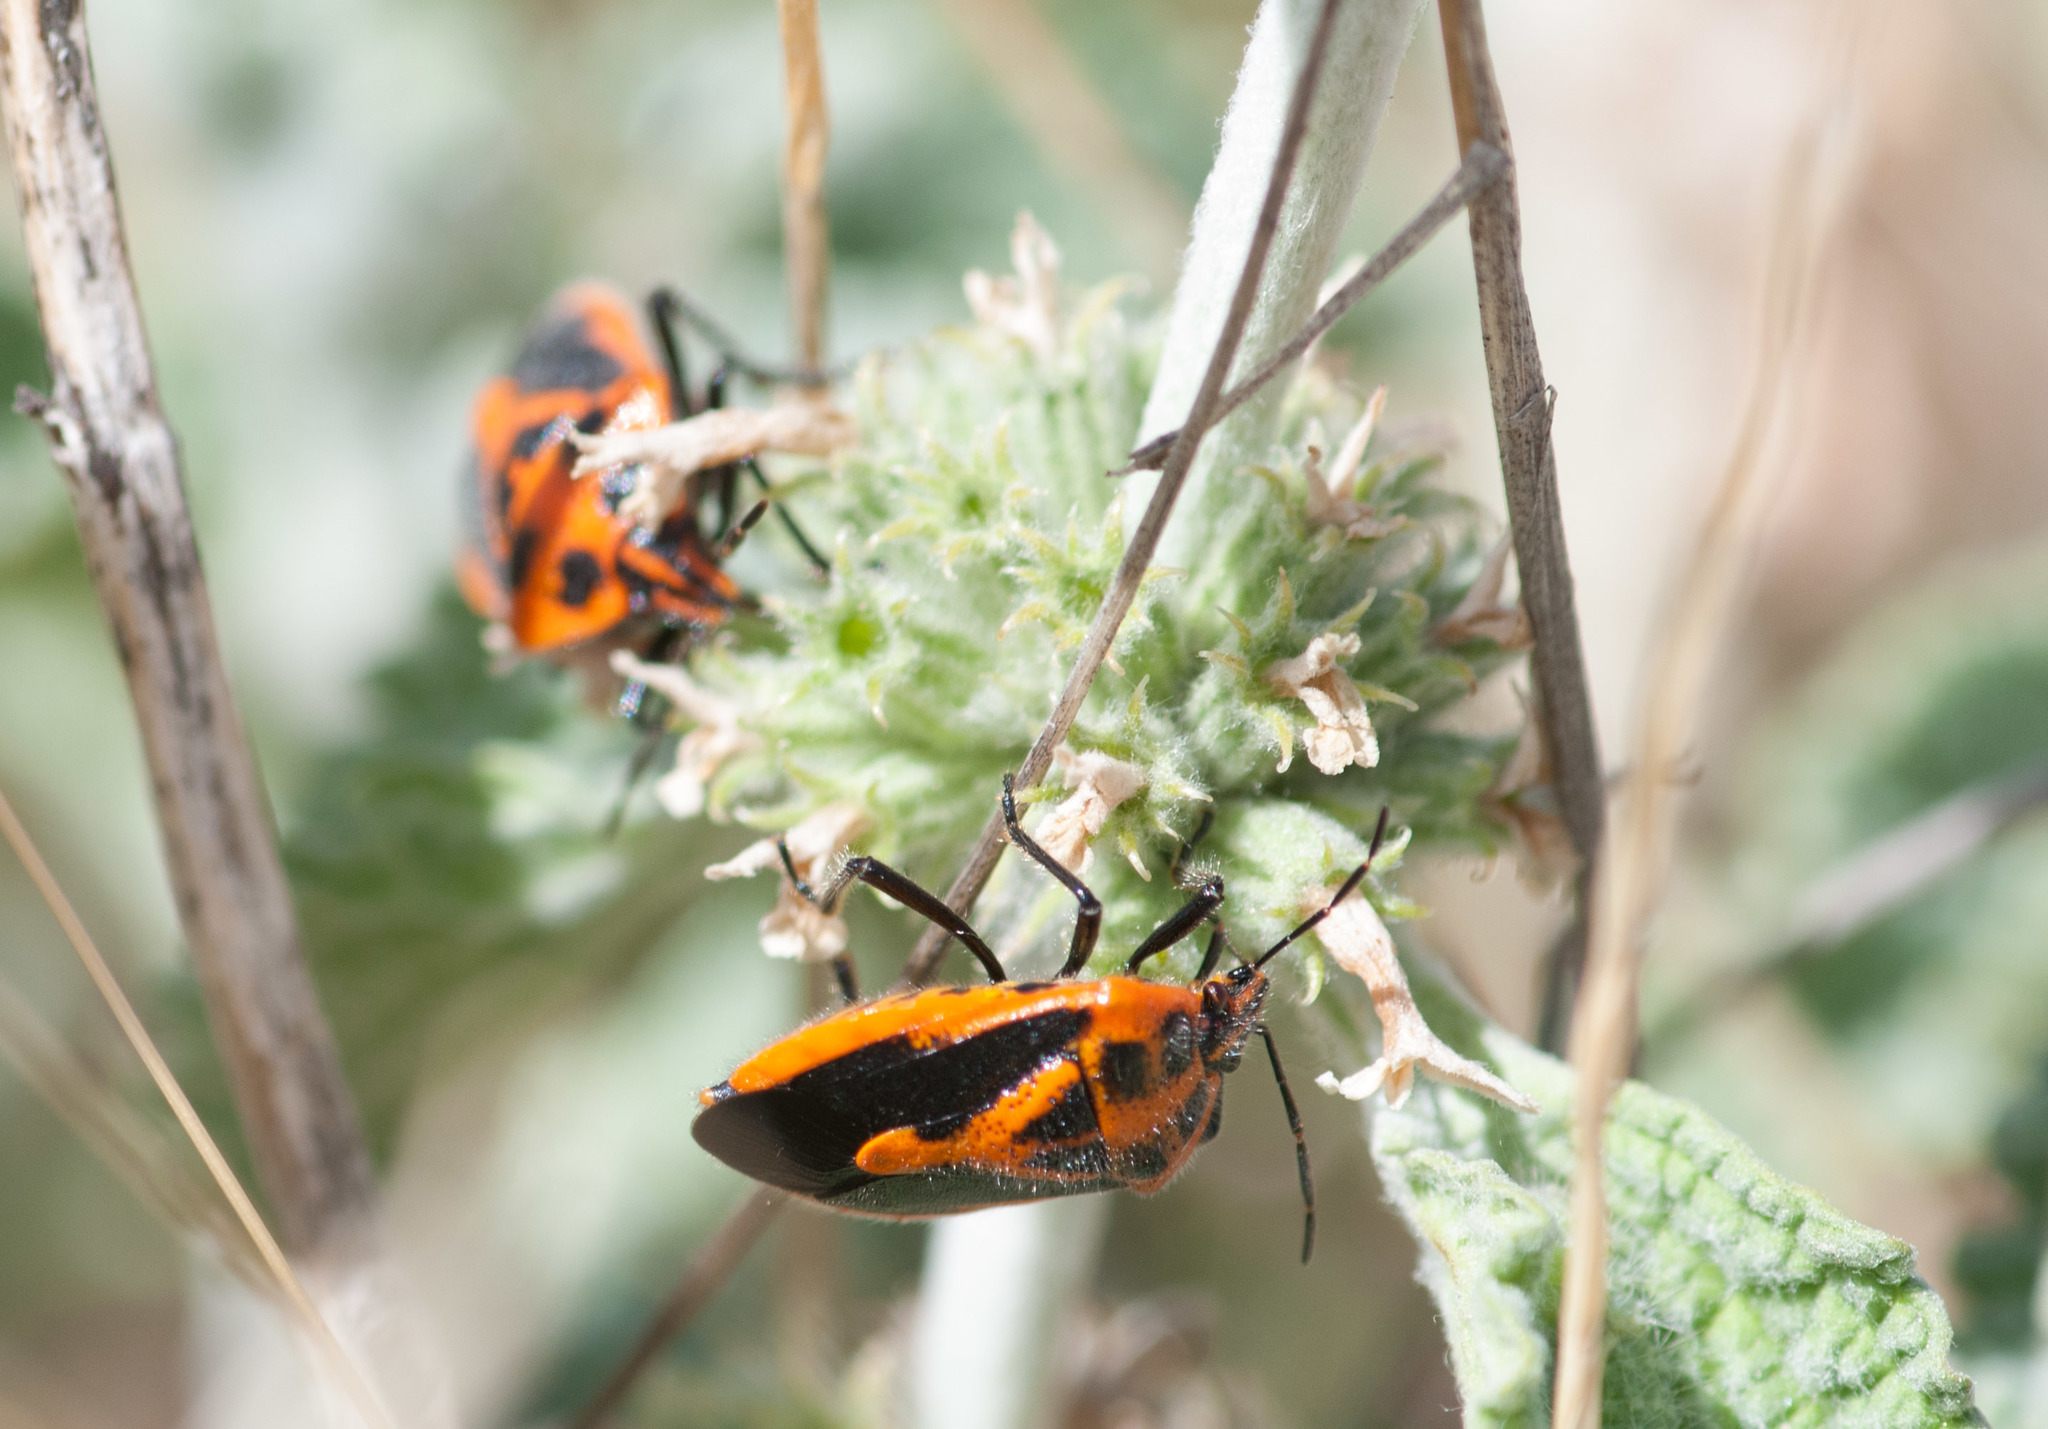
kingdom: Animalia
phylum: Arthropoda
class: Insecta
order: Hemiptera
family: Pentatomidae
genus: Agonoscelis
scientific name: Agonoscelis rutila
